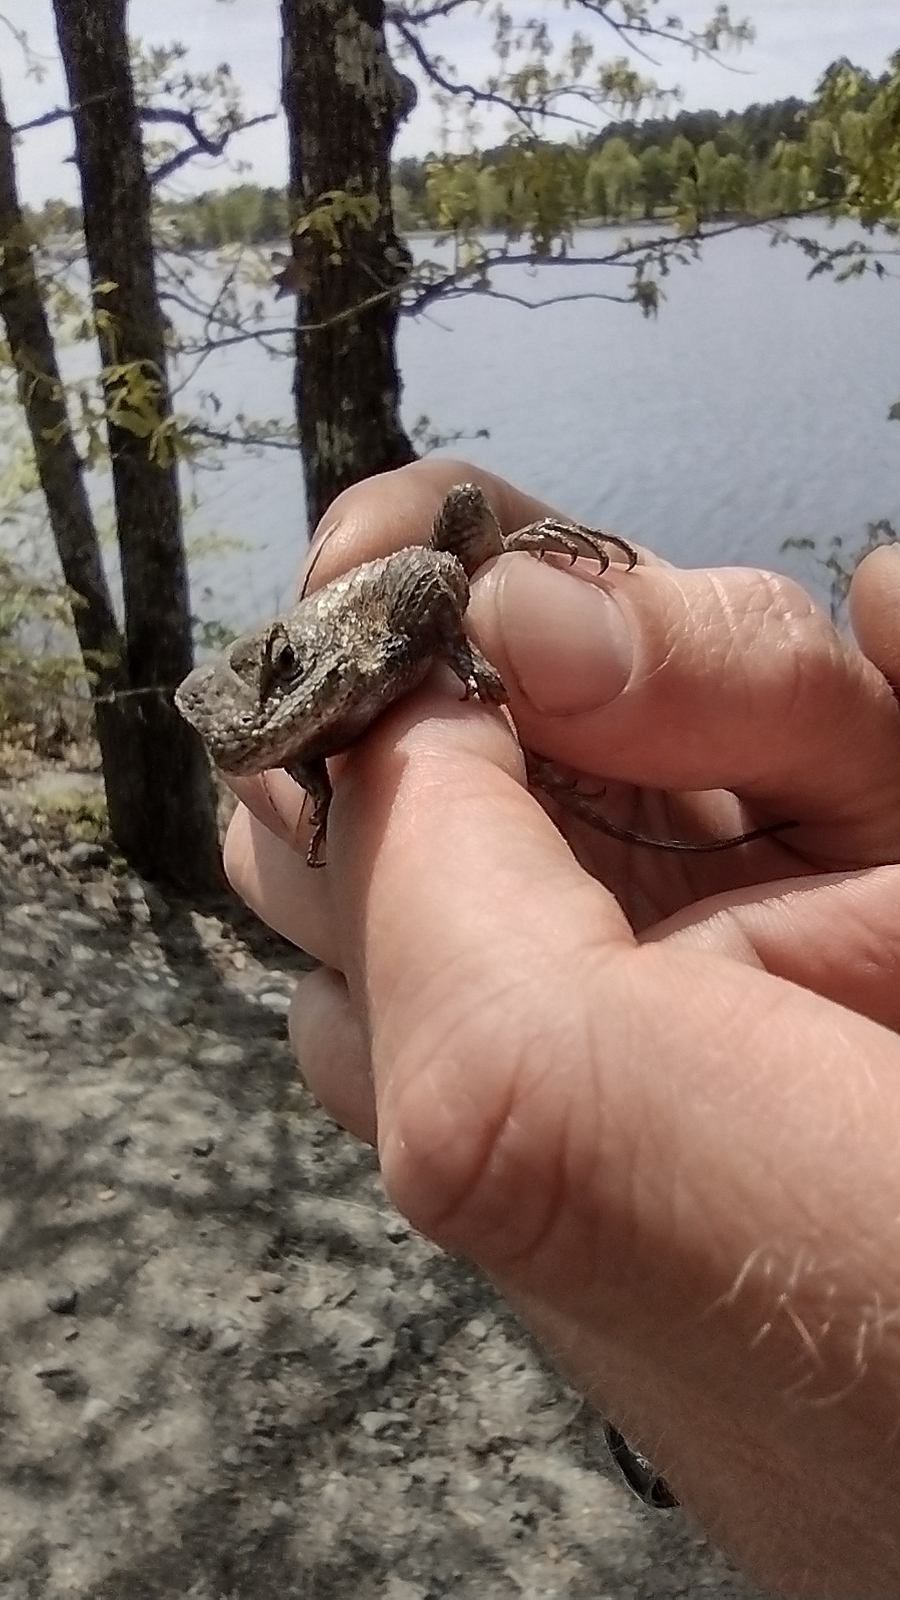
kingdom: Animalia
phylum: Chordata
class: Squamata
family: Phrynosomatidae
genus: Sceloporus
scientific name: Sceloporus consobrinus
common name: Southern prairie lizard
